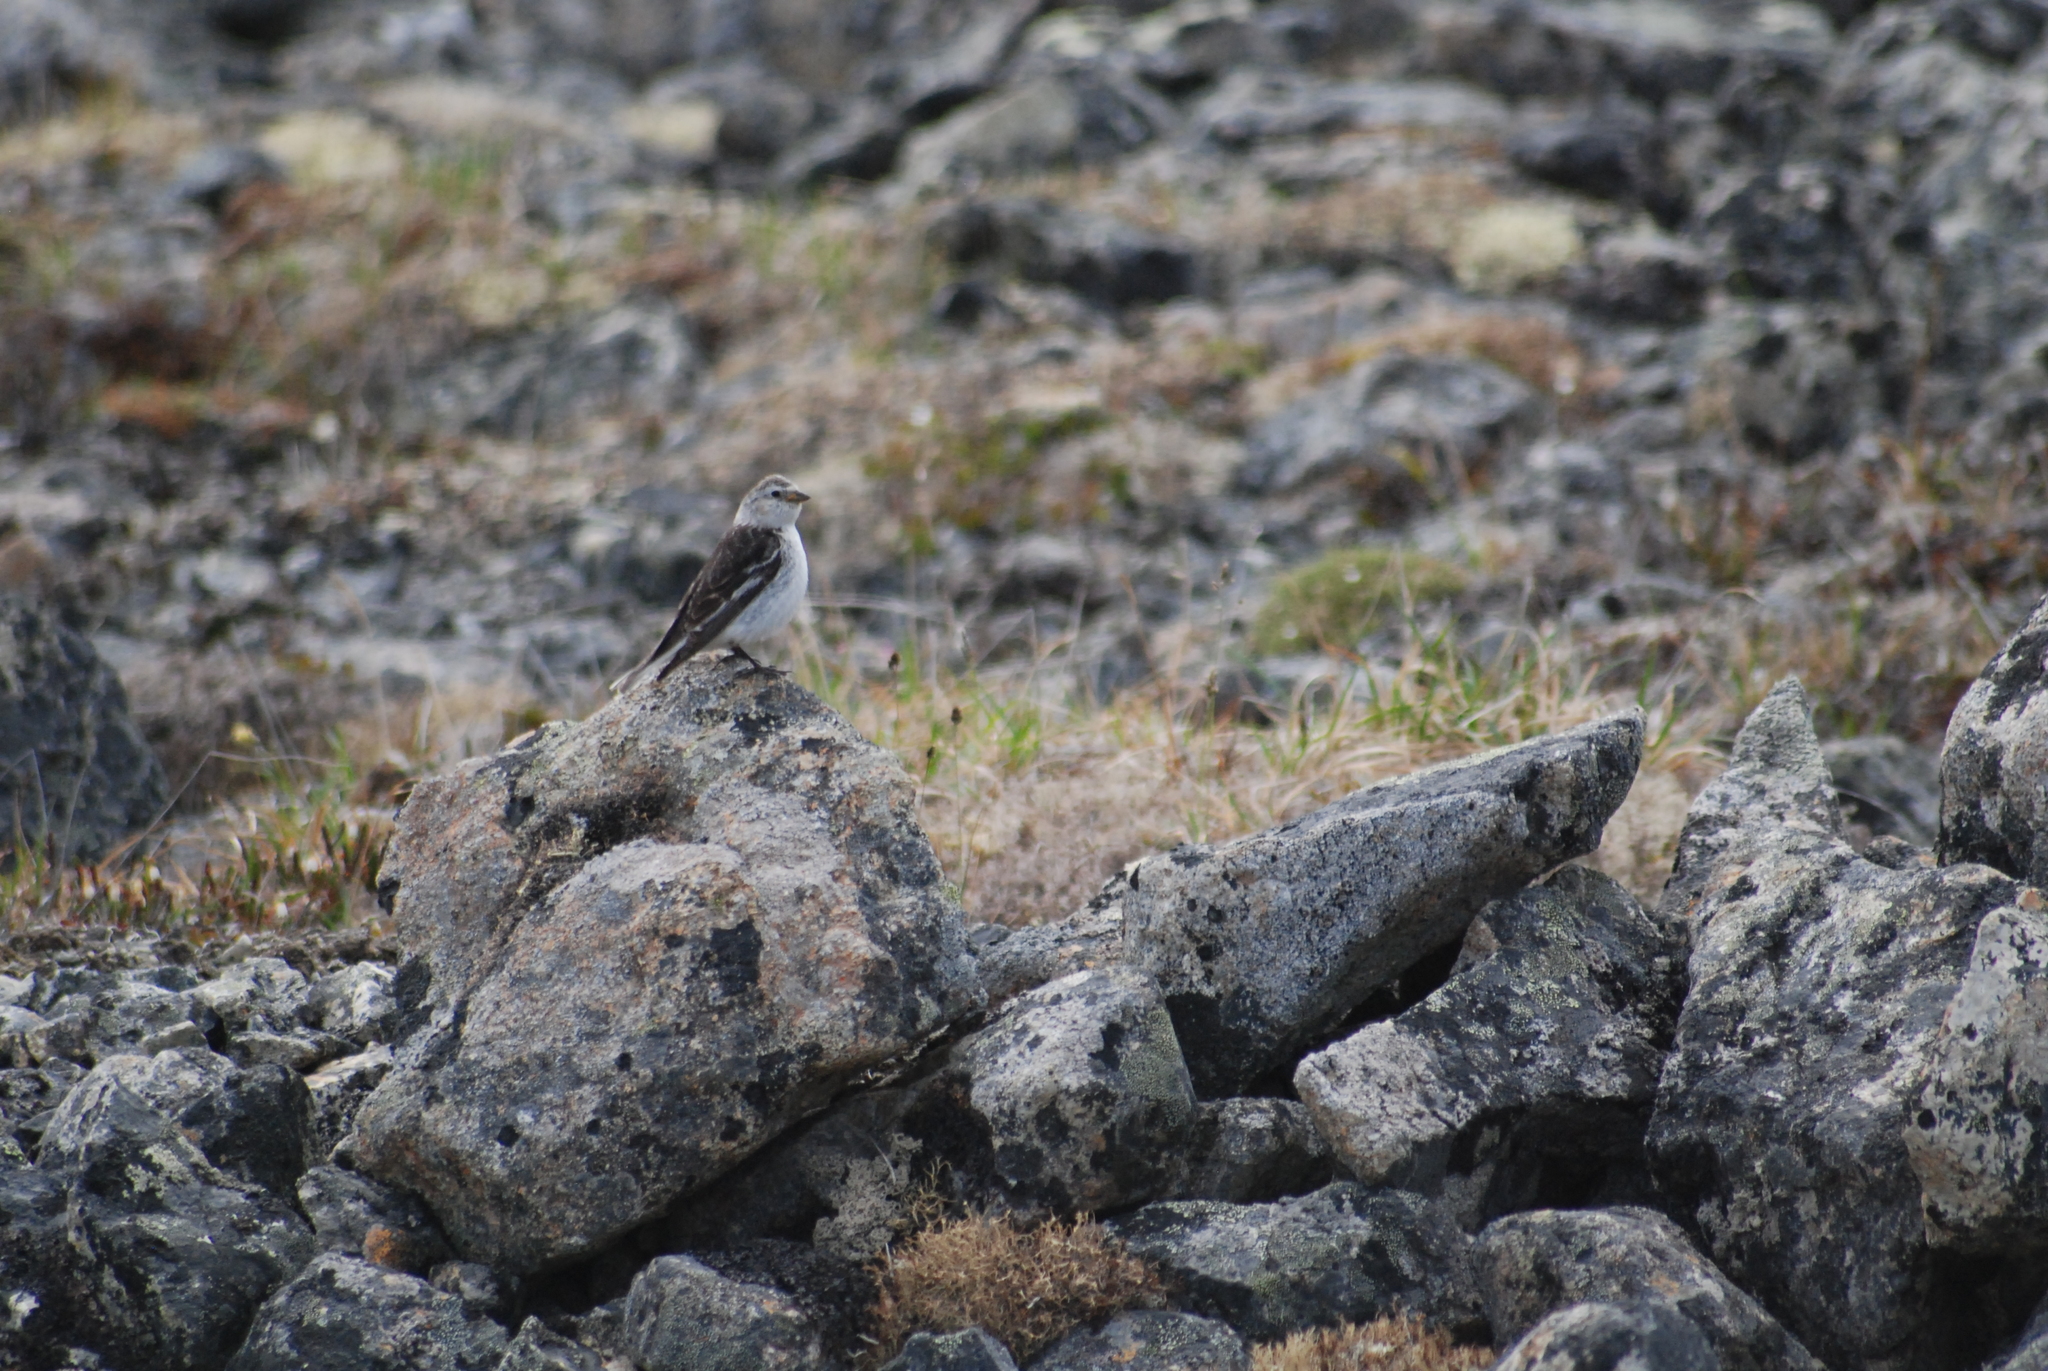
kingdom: Animalia
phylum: Chordata
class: Aves
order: Passeriformes
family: Calcariidae
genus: Plectrophenax
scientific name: Plectrophenax nivalis
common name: Snow bunting
